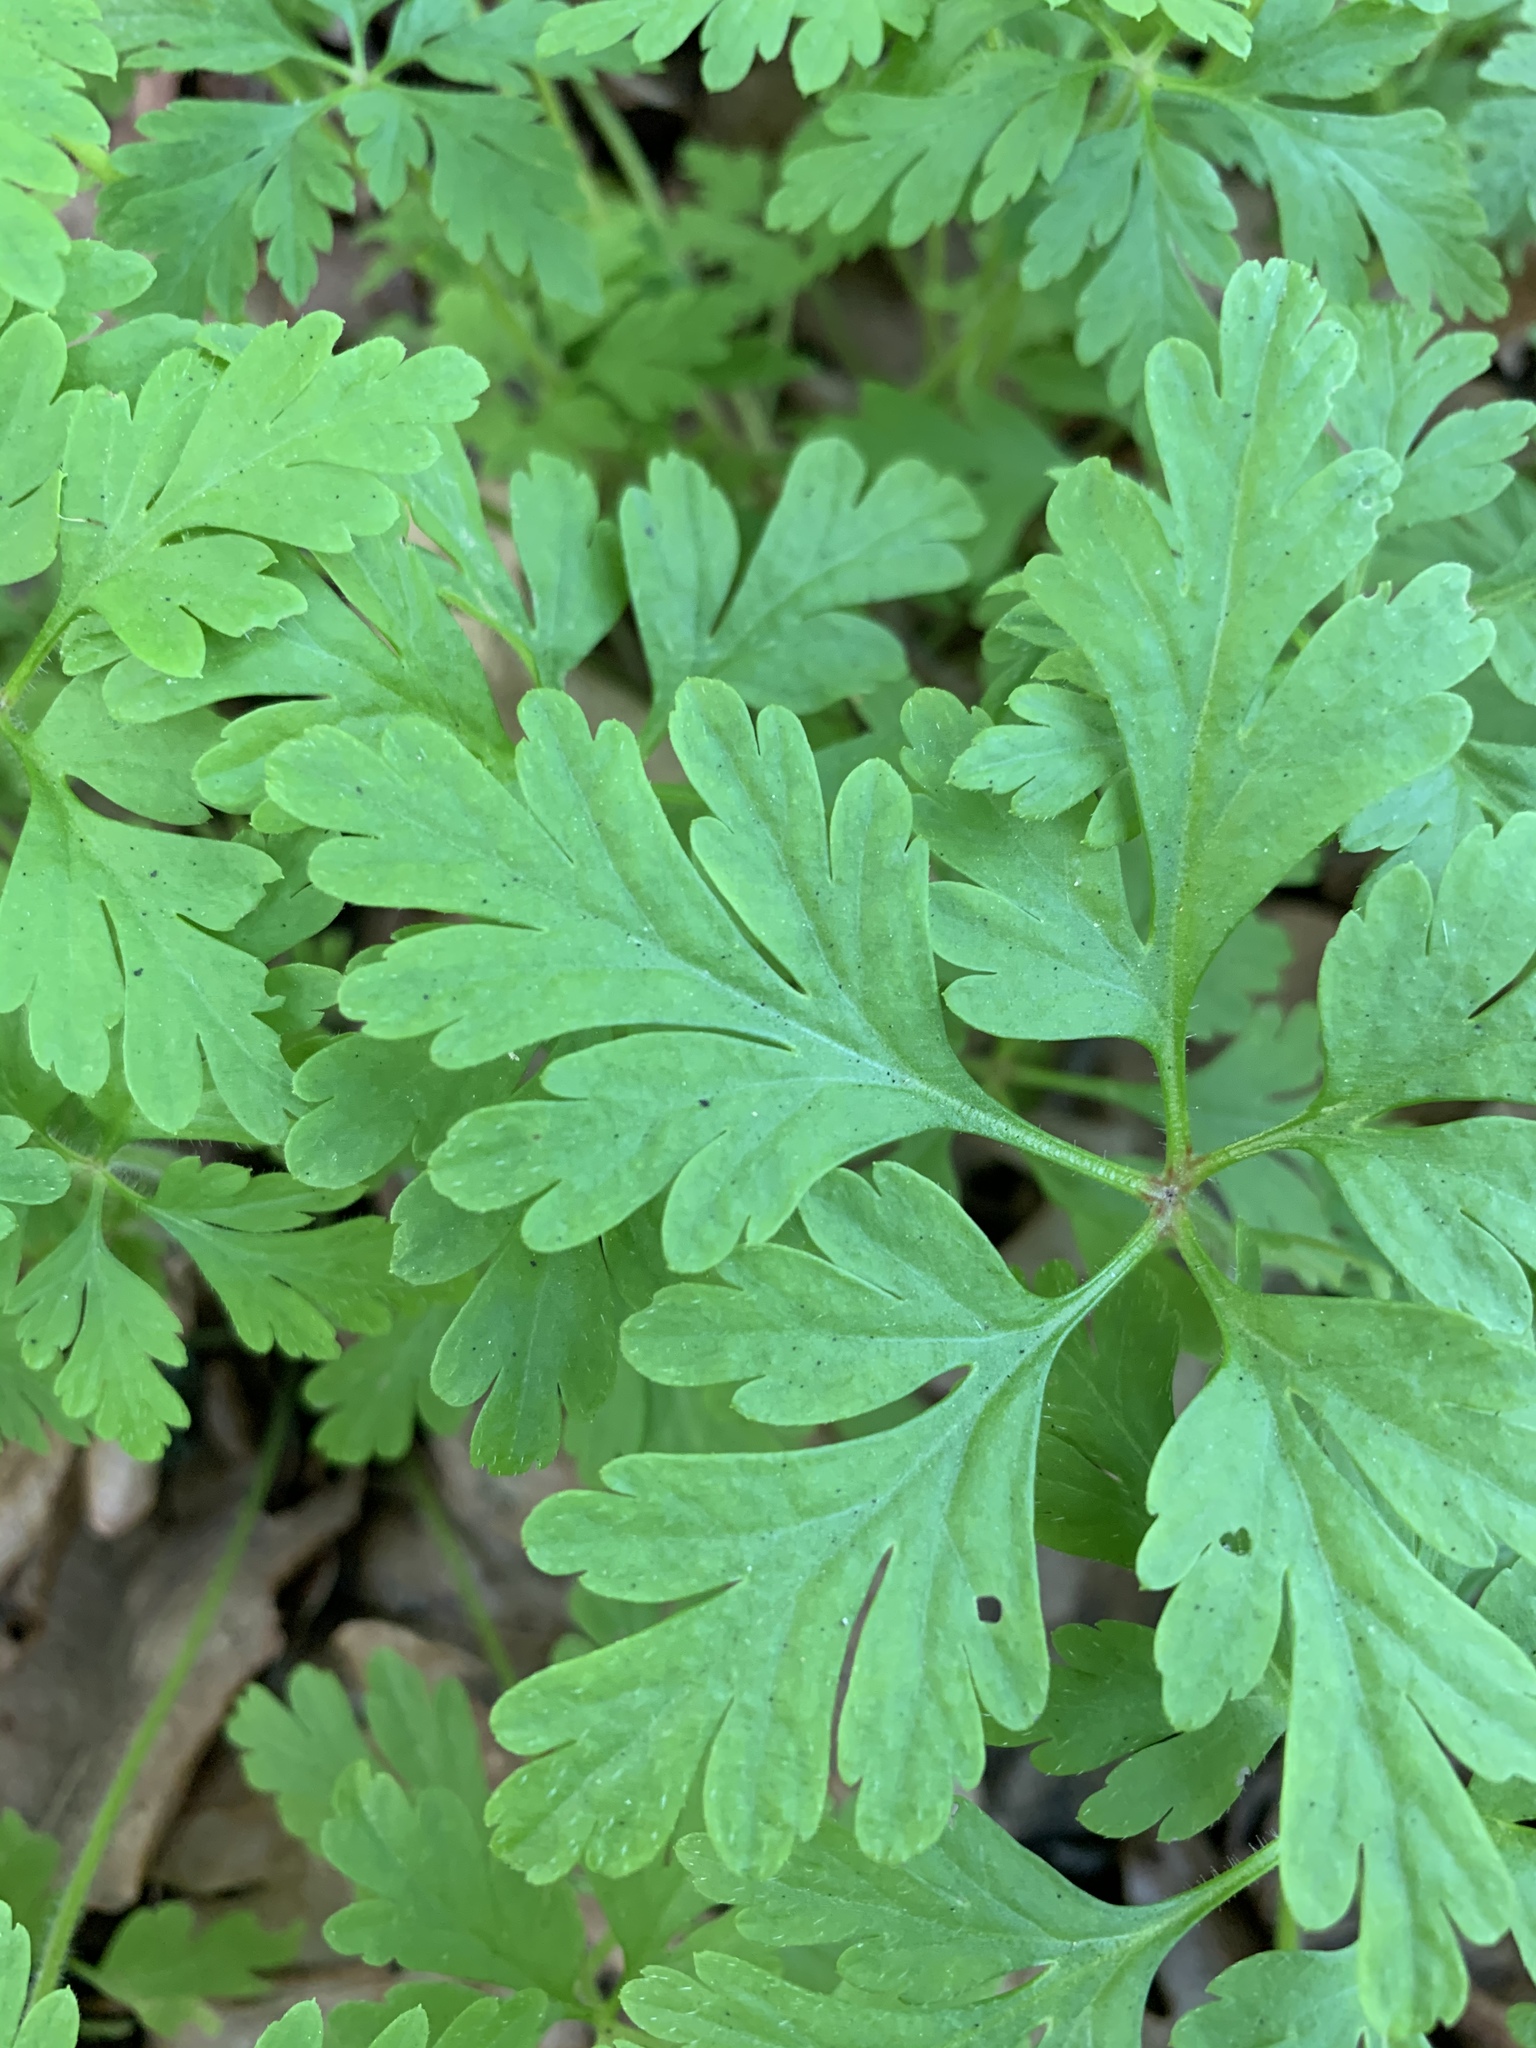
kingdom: Plantae
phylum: Tracheophyta
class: Magnoliopsida
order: Geraniales
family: Geraniaceae
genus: Geranium
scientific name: Geranium purpureum
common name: Little-robin
